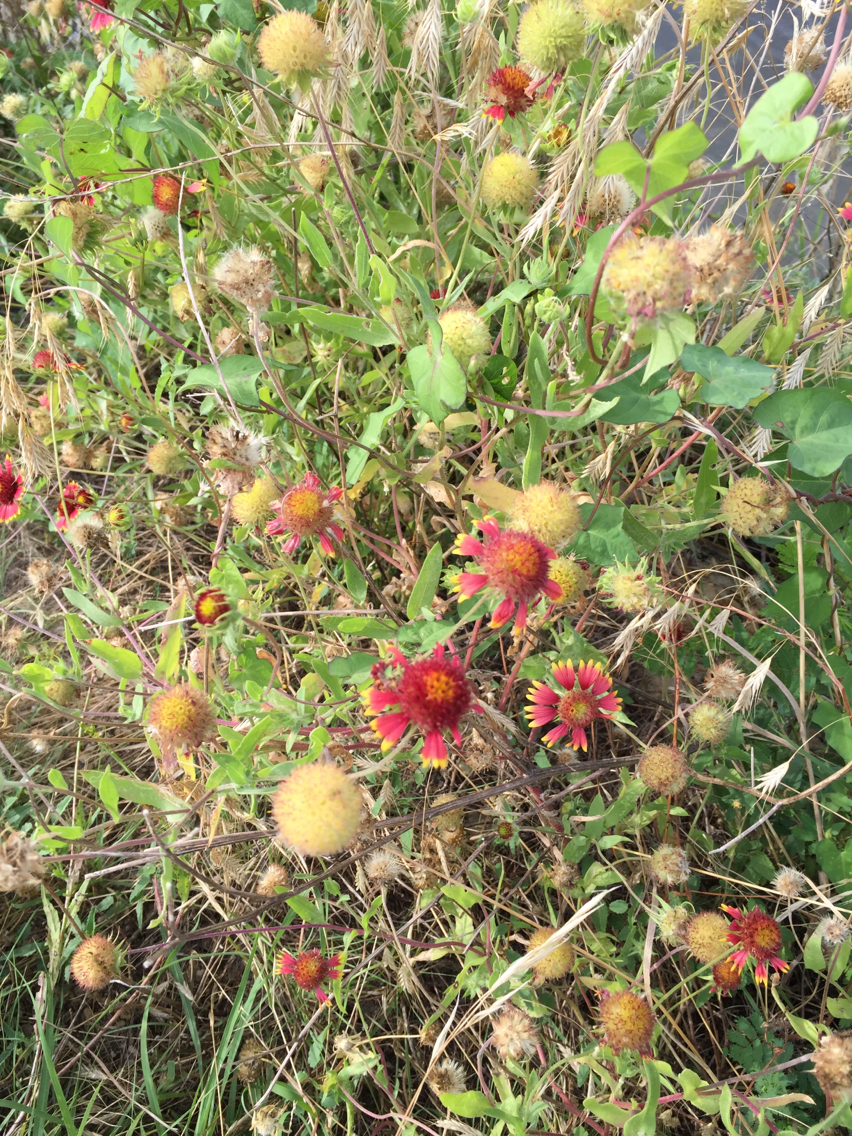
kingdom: Plantae
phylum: Tracheophyta
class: Magnoliopsida
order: Asterales
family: Asteraceae
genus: Gaillardia
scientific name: Gaillardia pulchella
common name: Firewheel
